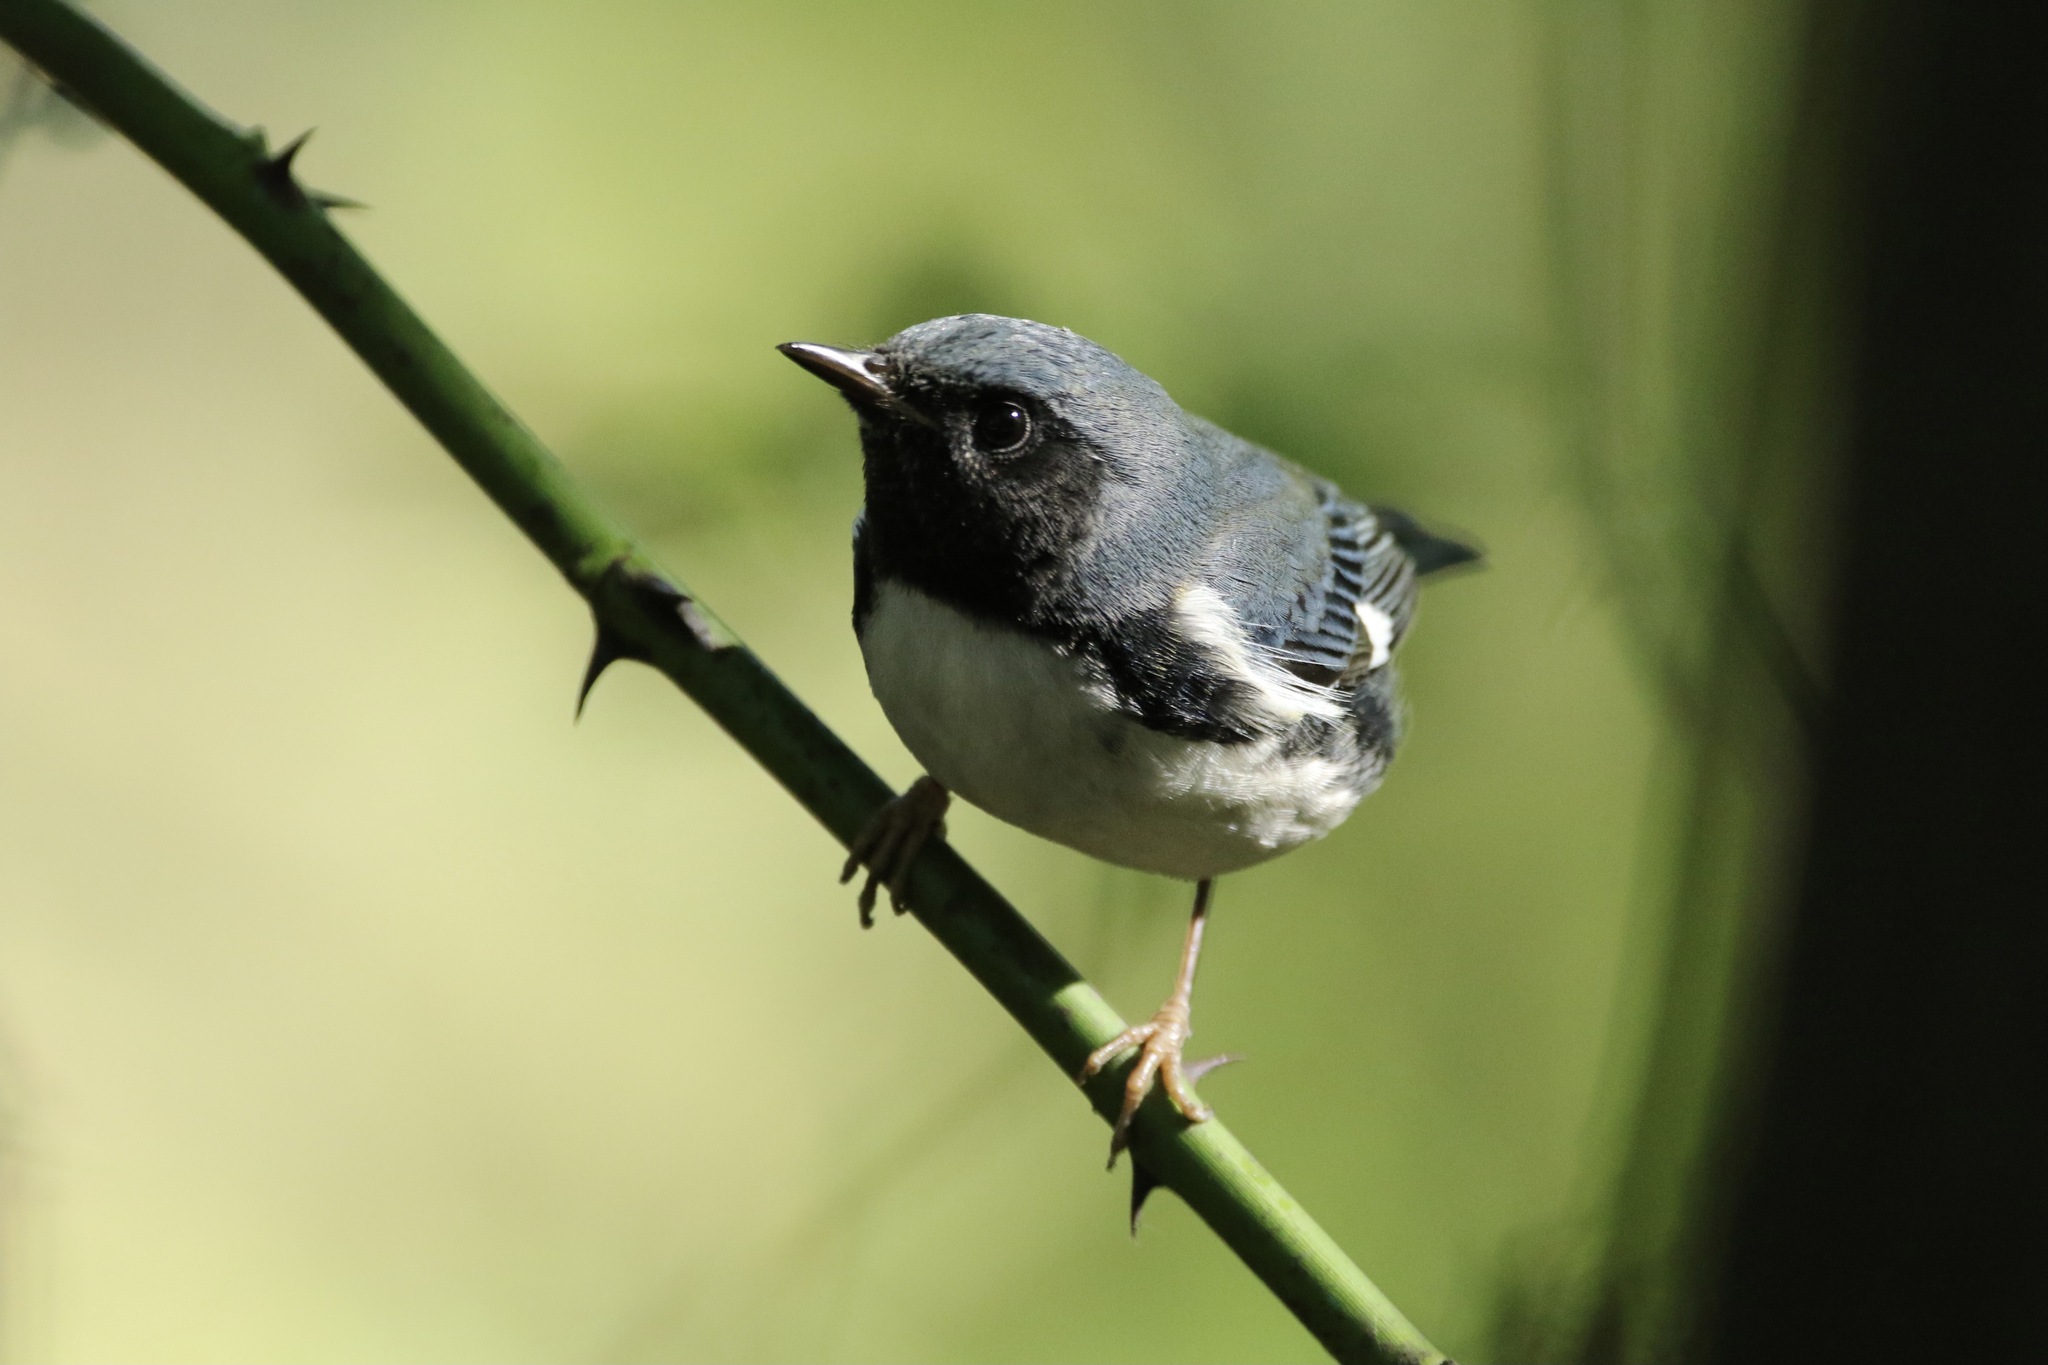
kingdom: Animalia
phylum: Chordata
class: Aves
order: Passeriformes
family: Parulidae
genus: Setophaga
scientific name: Setophaga caerulescens
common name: Black-throated blue warbler
